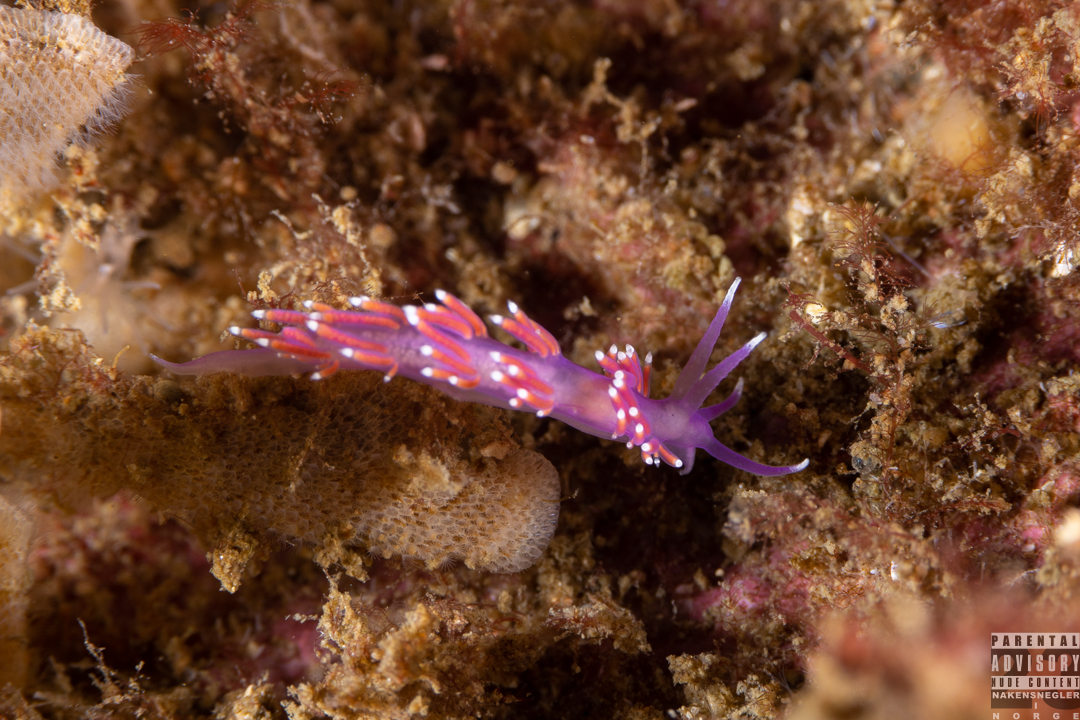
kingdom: Animalia
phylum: Mollusca
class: Gastropoda
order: Nudibranchia
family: Flabellinidae
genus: Edmundsella
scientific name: Edmundsella pedata
